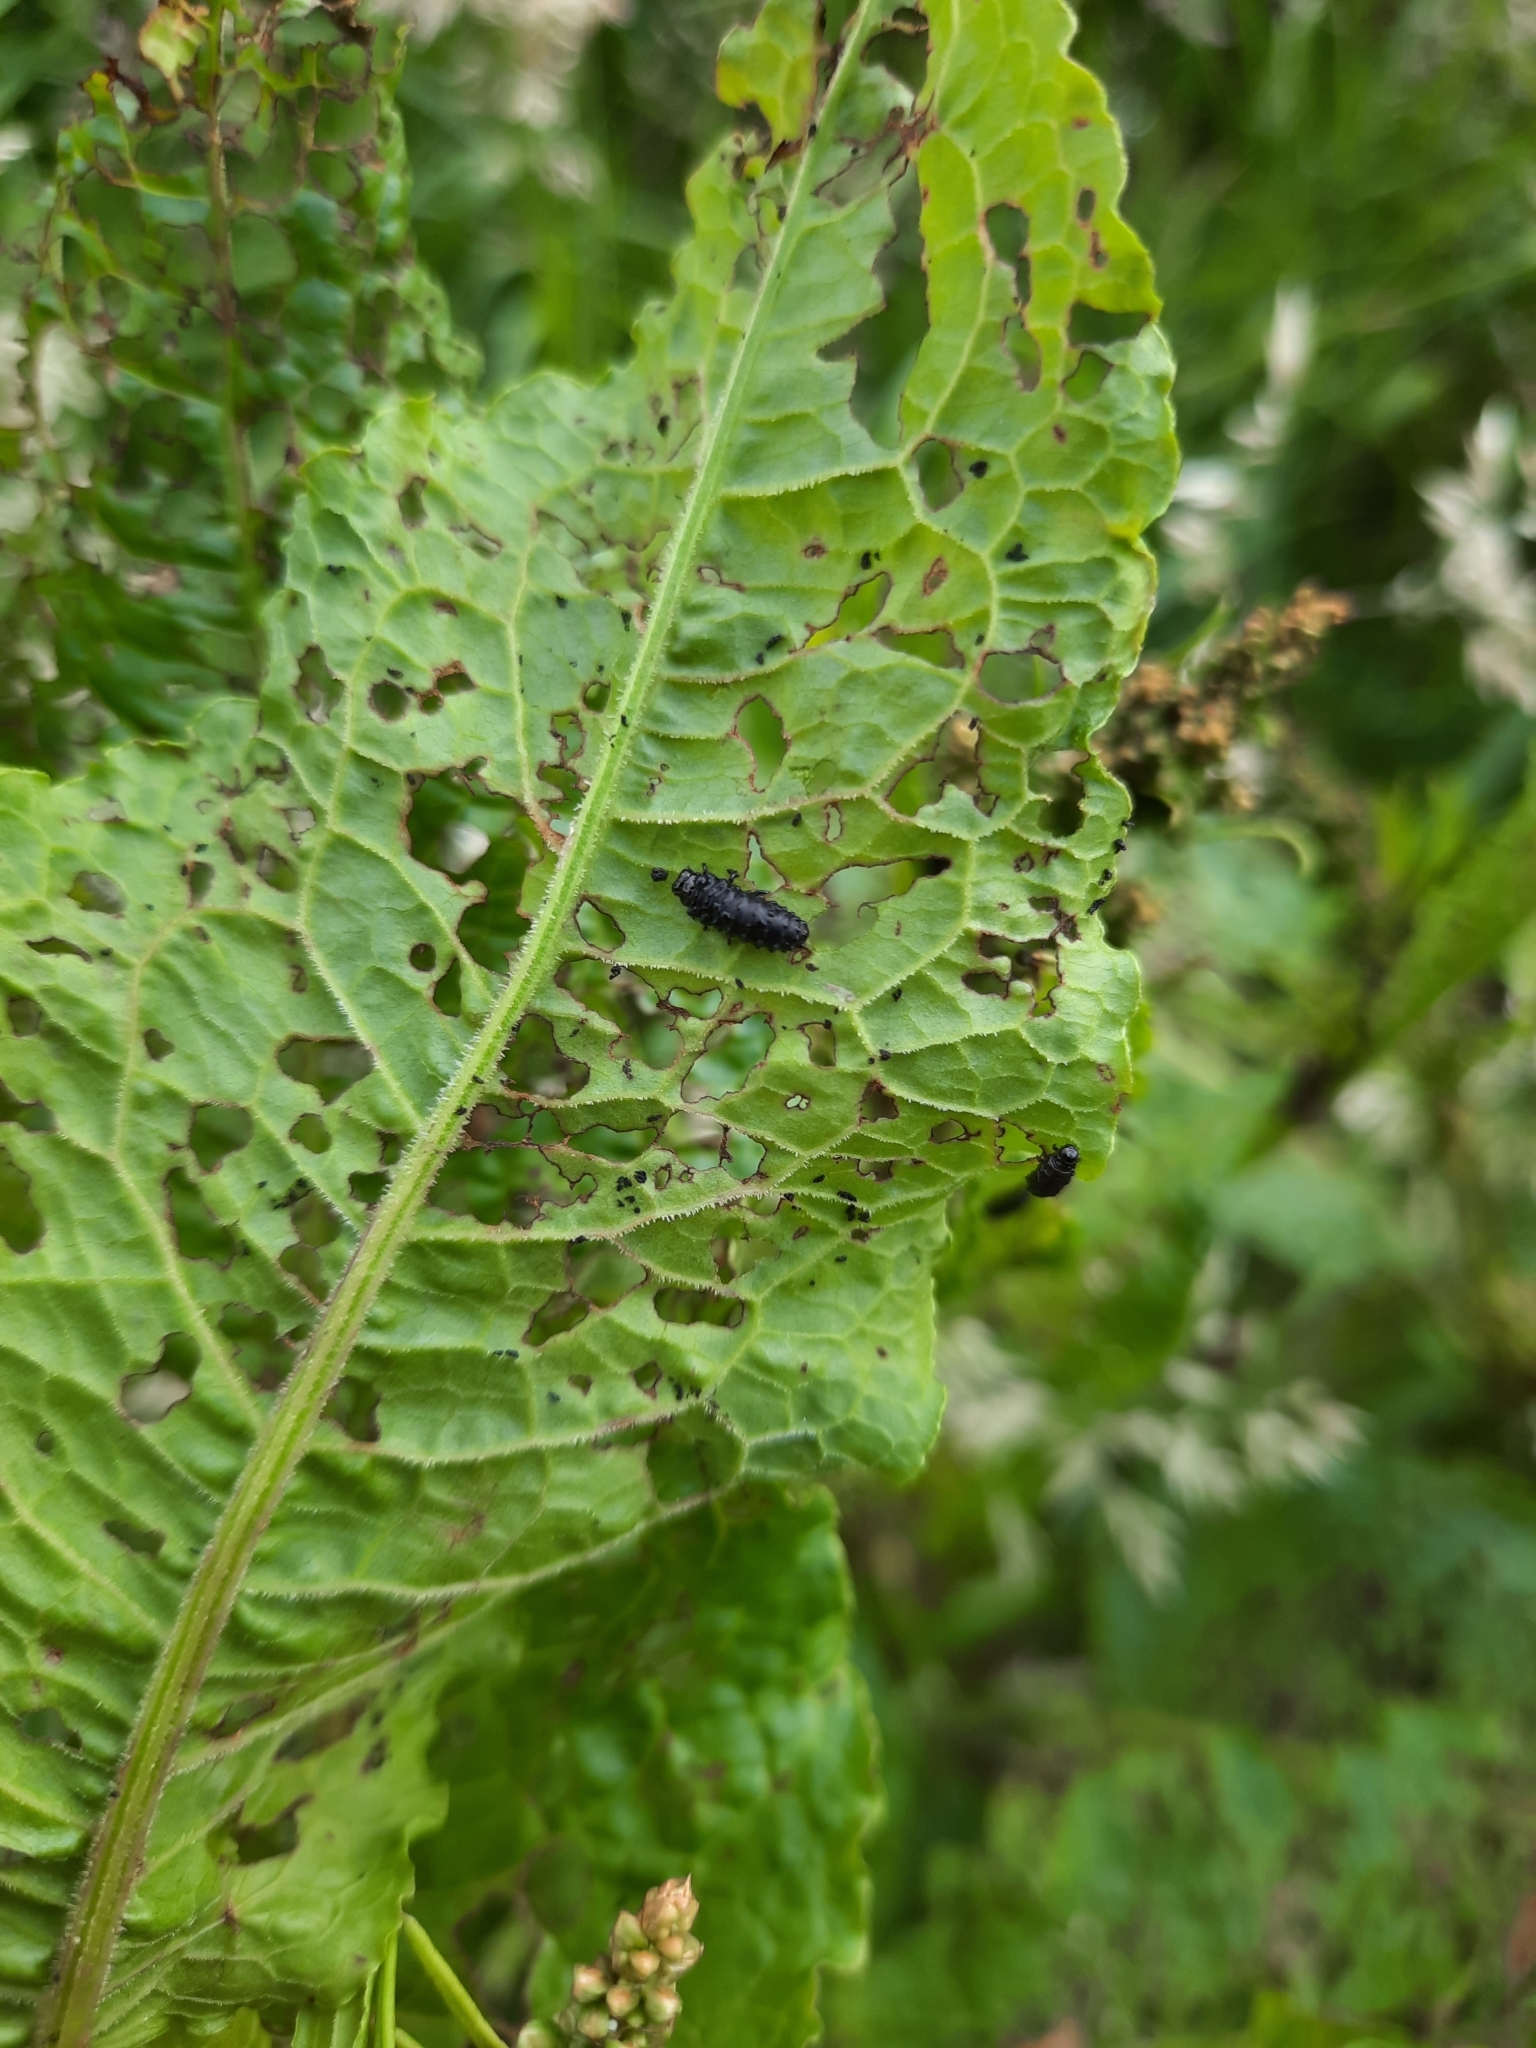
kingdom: Animalia
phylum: Arthropoda
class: Insecta
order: Coleoptera
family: Chrysomelidae
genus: Gastrophysa
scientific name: Gastrophysa viridula
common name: Green dock beetle
